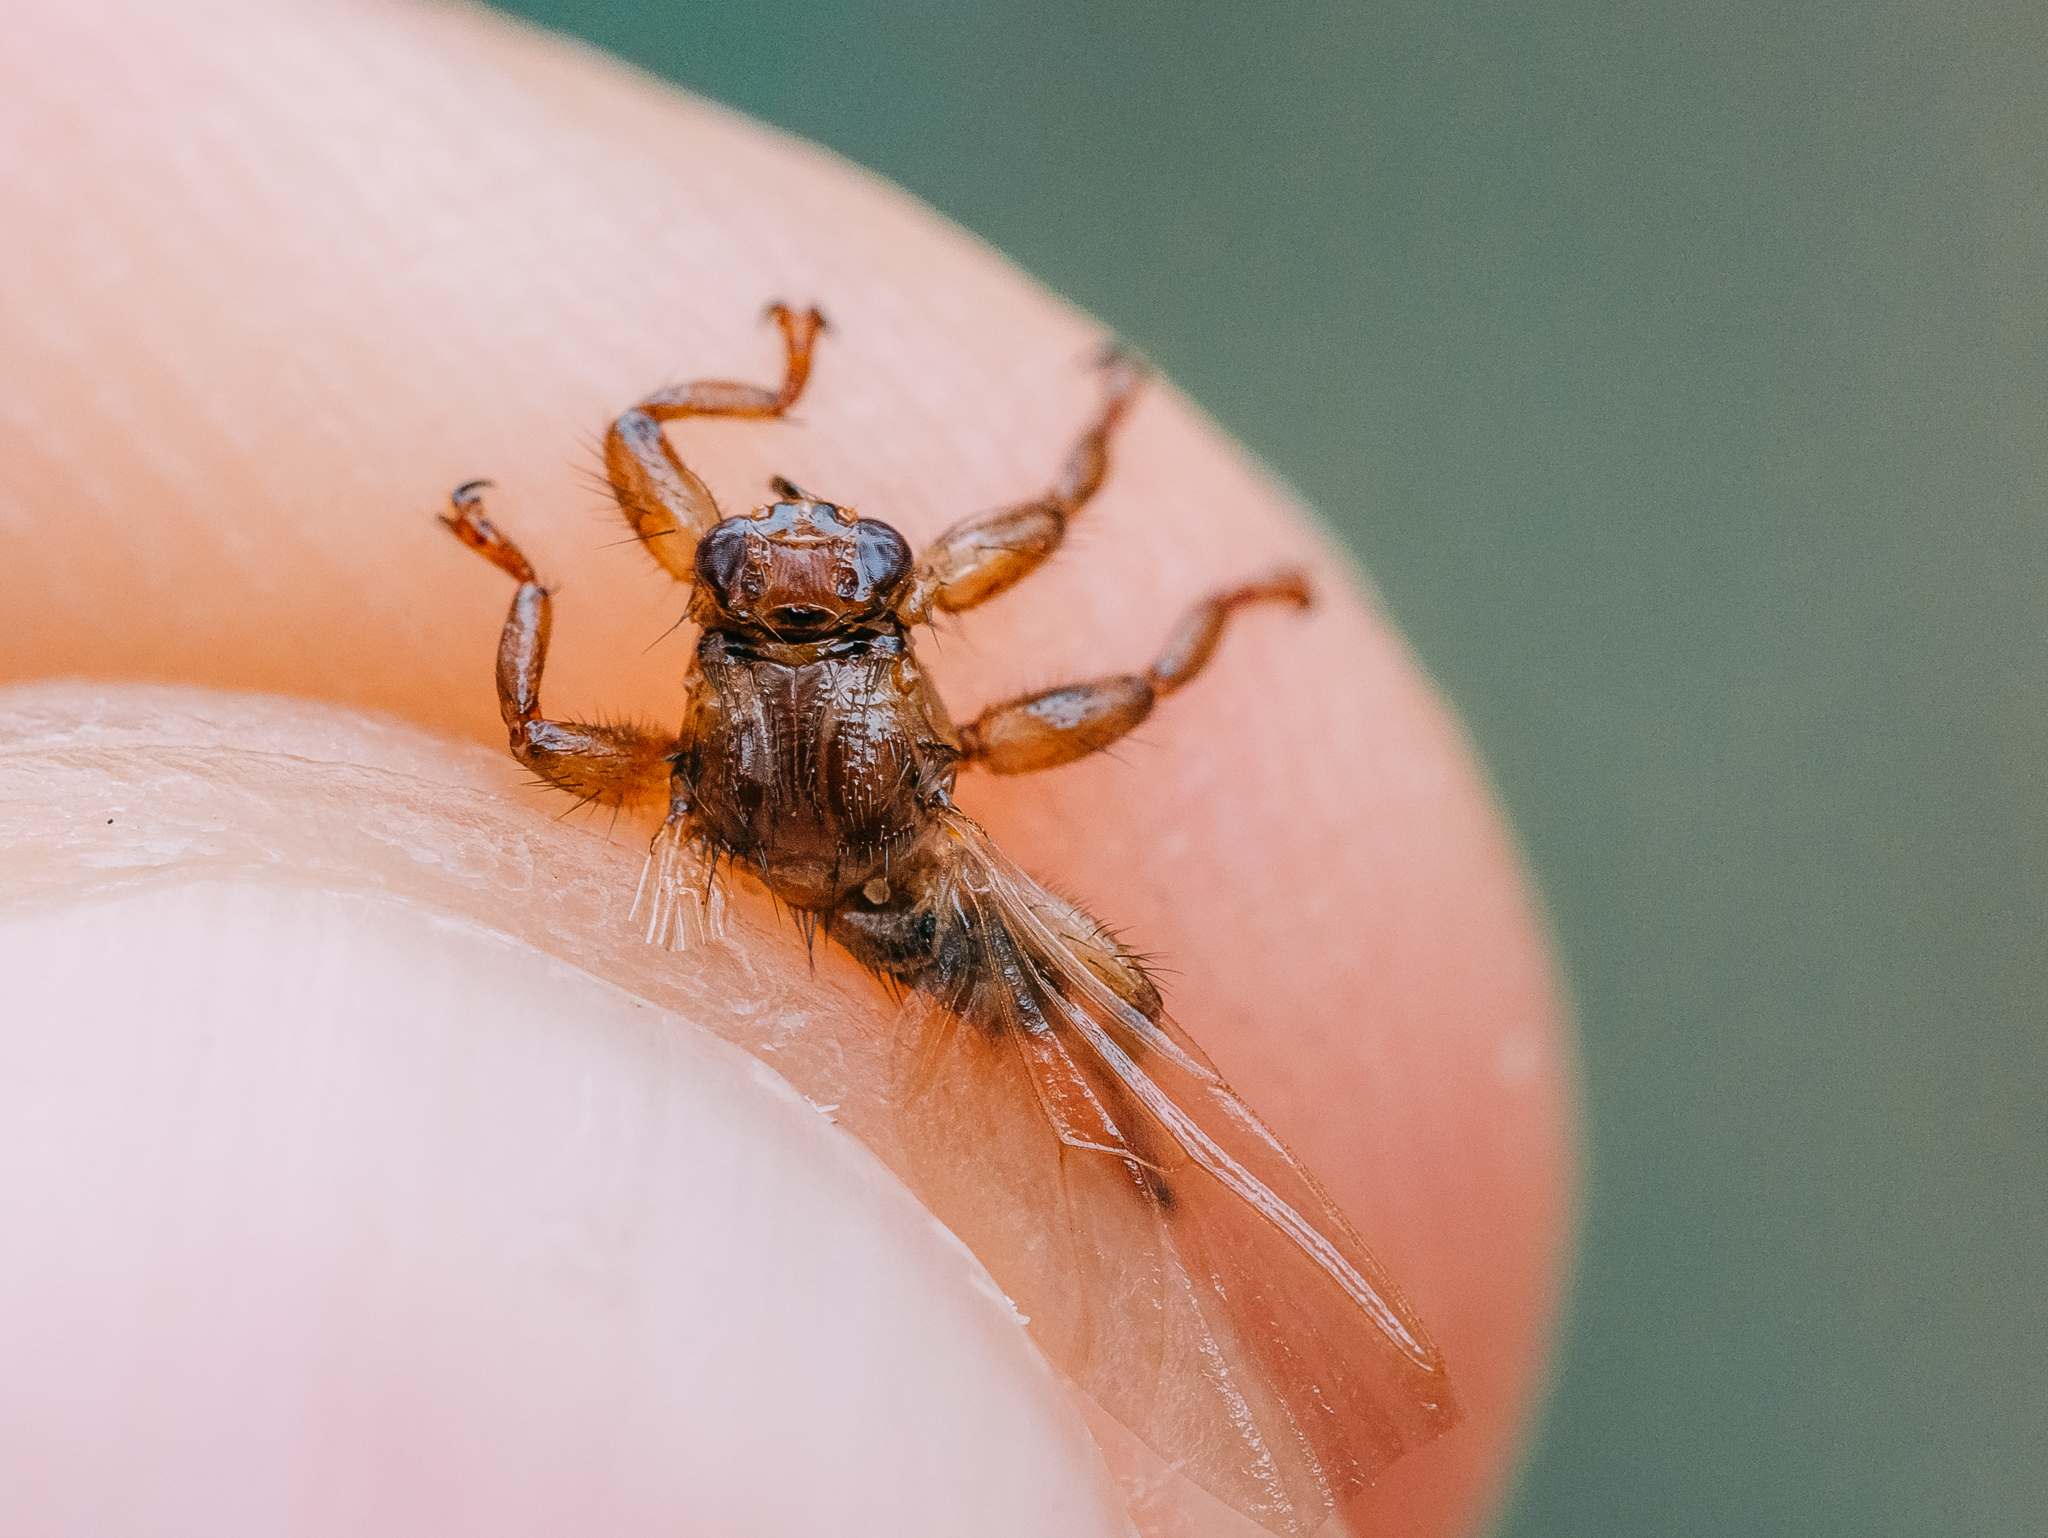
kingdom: Animalia
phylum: Arthropoda
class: Insecta
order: Diptera
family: Hippoboscidae
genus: Lipoptena
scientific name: Lipoptena cervi
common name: Deer ked
